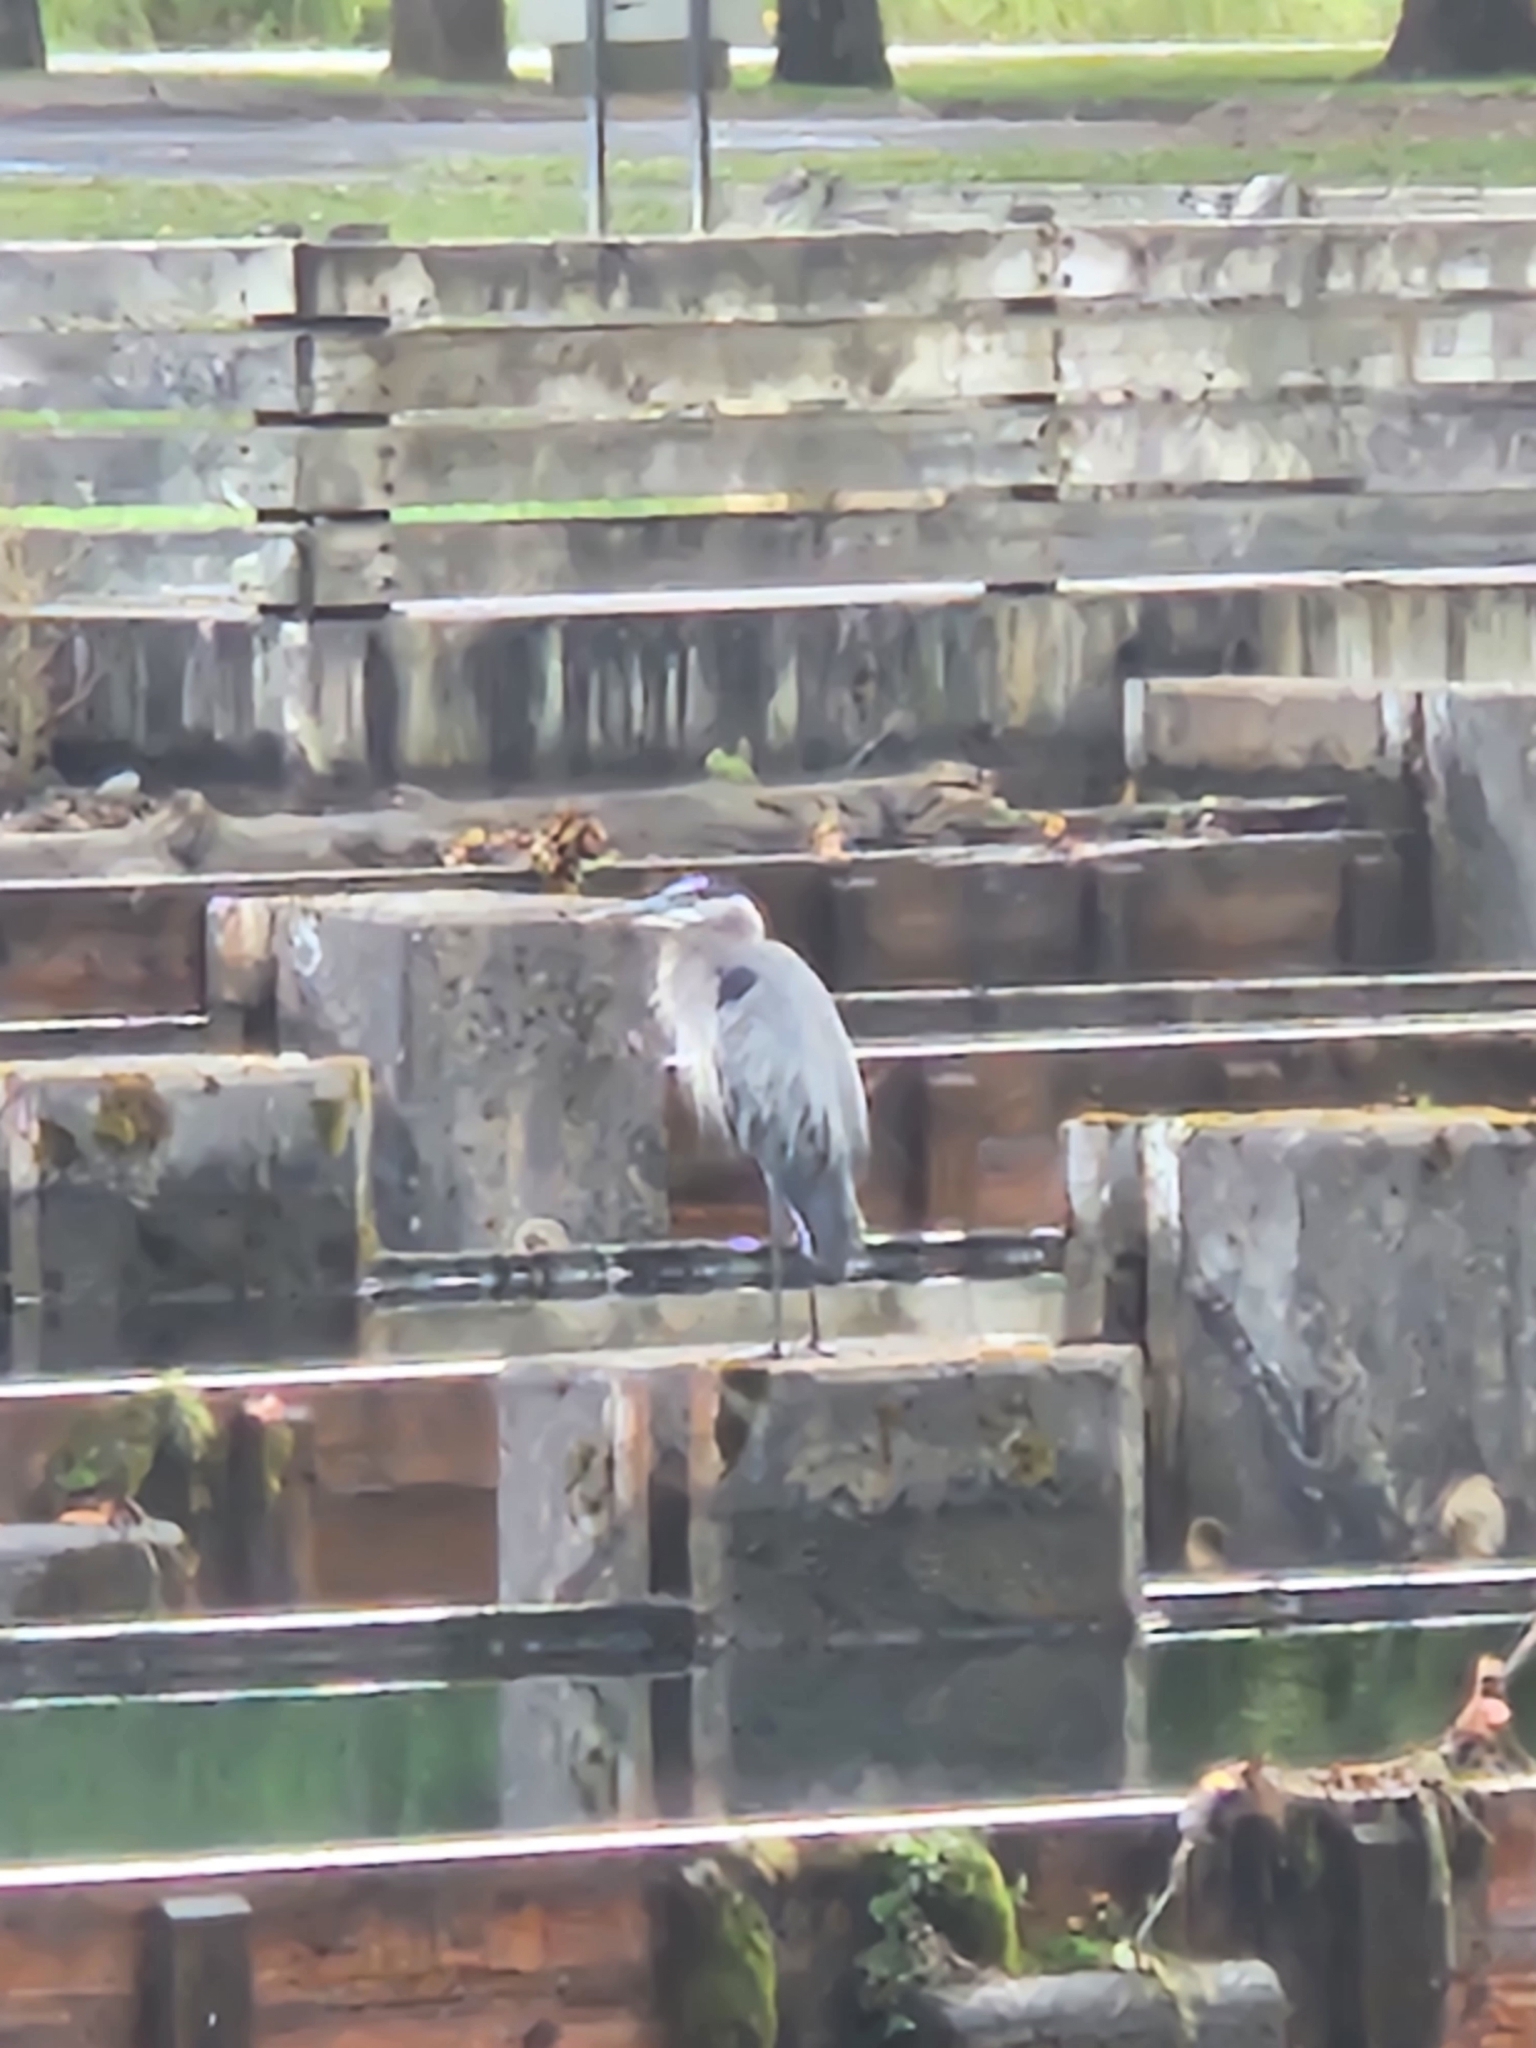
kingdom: Animalia
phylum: Chordata
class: Aves
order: Pelecaniformes
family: Ardeidae
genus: Ardea
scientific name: Ardea herodias
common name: Great blue heron
